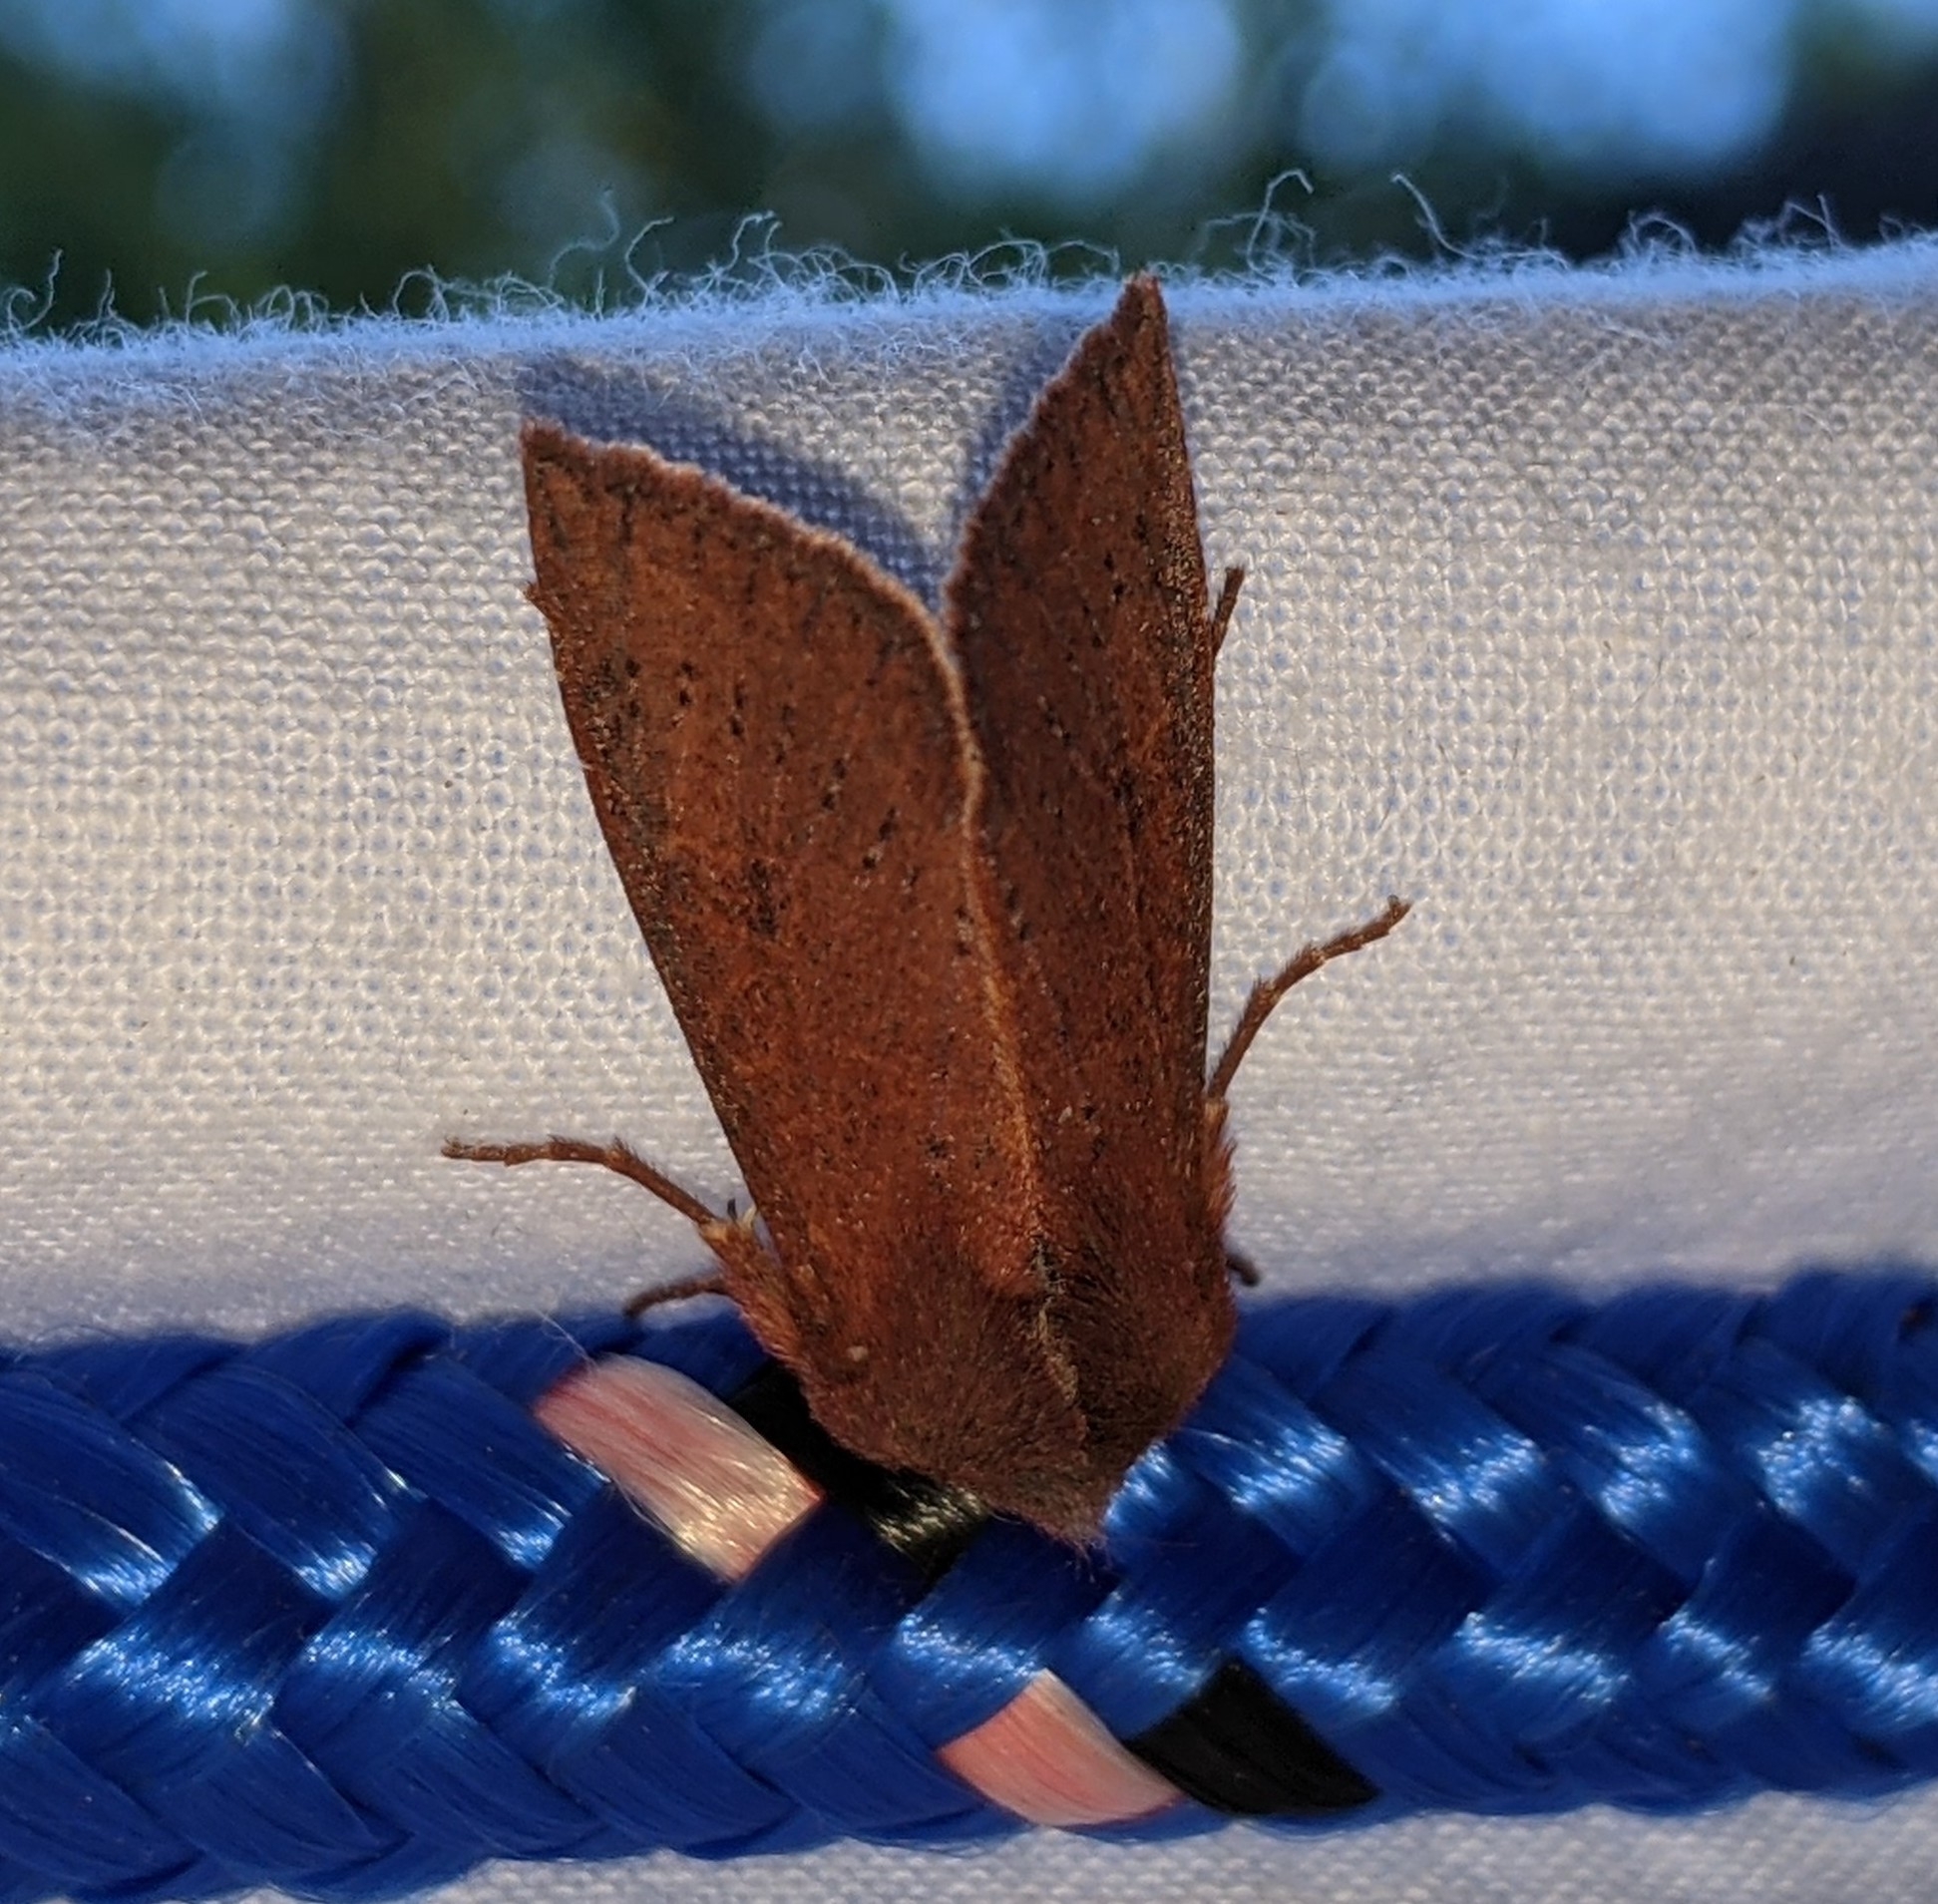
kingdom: Animalia
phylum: Arthropoda
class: Insecta
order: Lepidoptera
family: Noctuidae
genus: Orthosia
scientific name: Orthosia transparens
